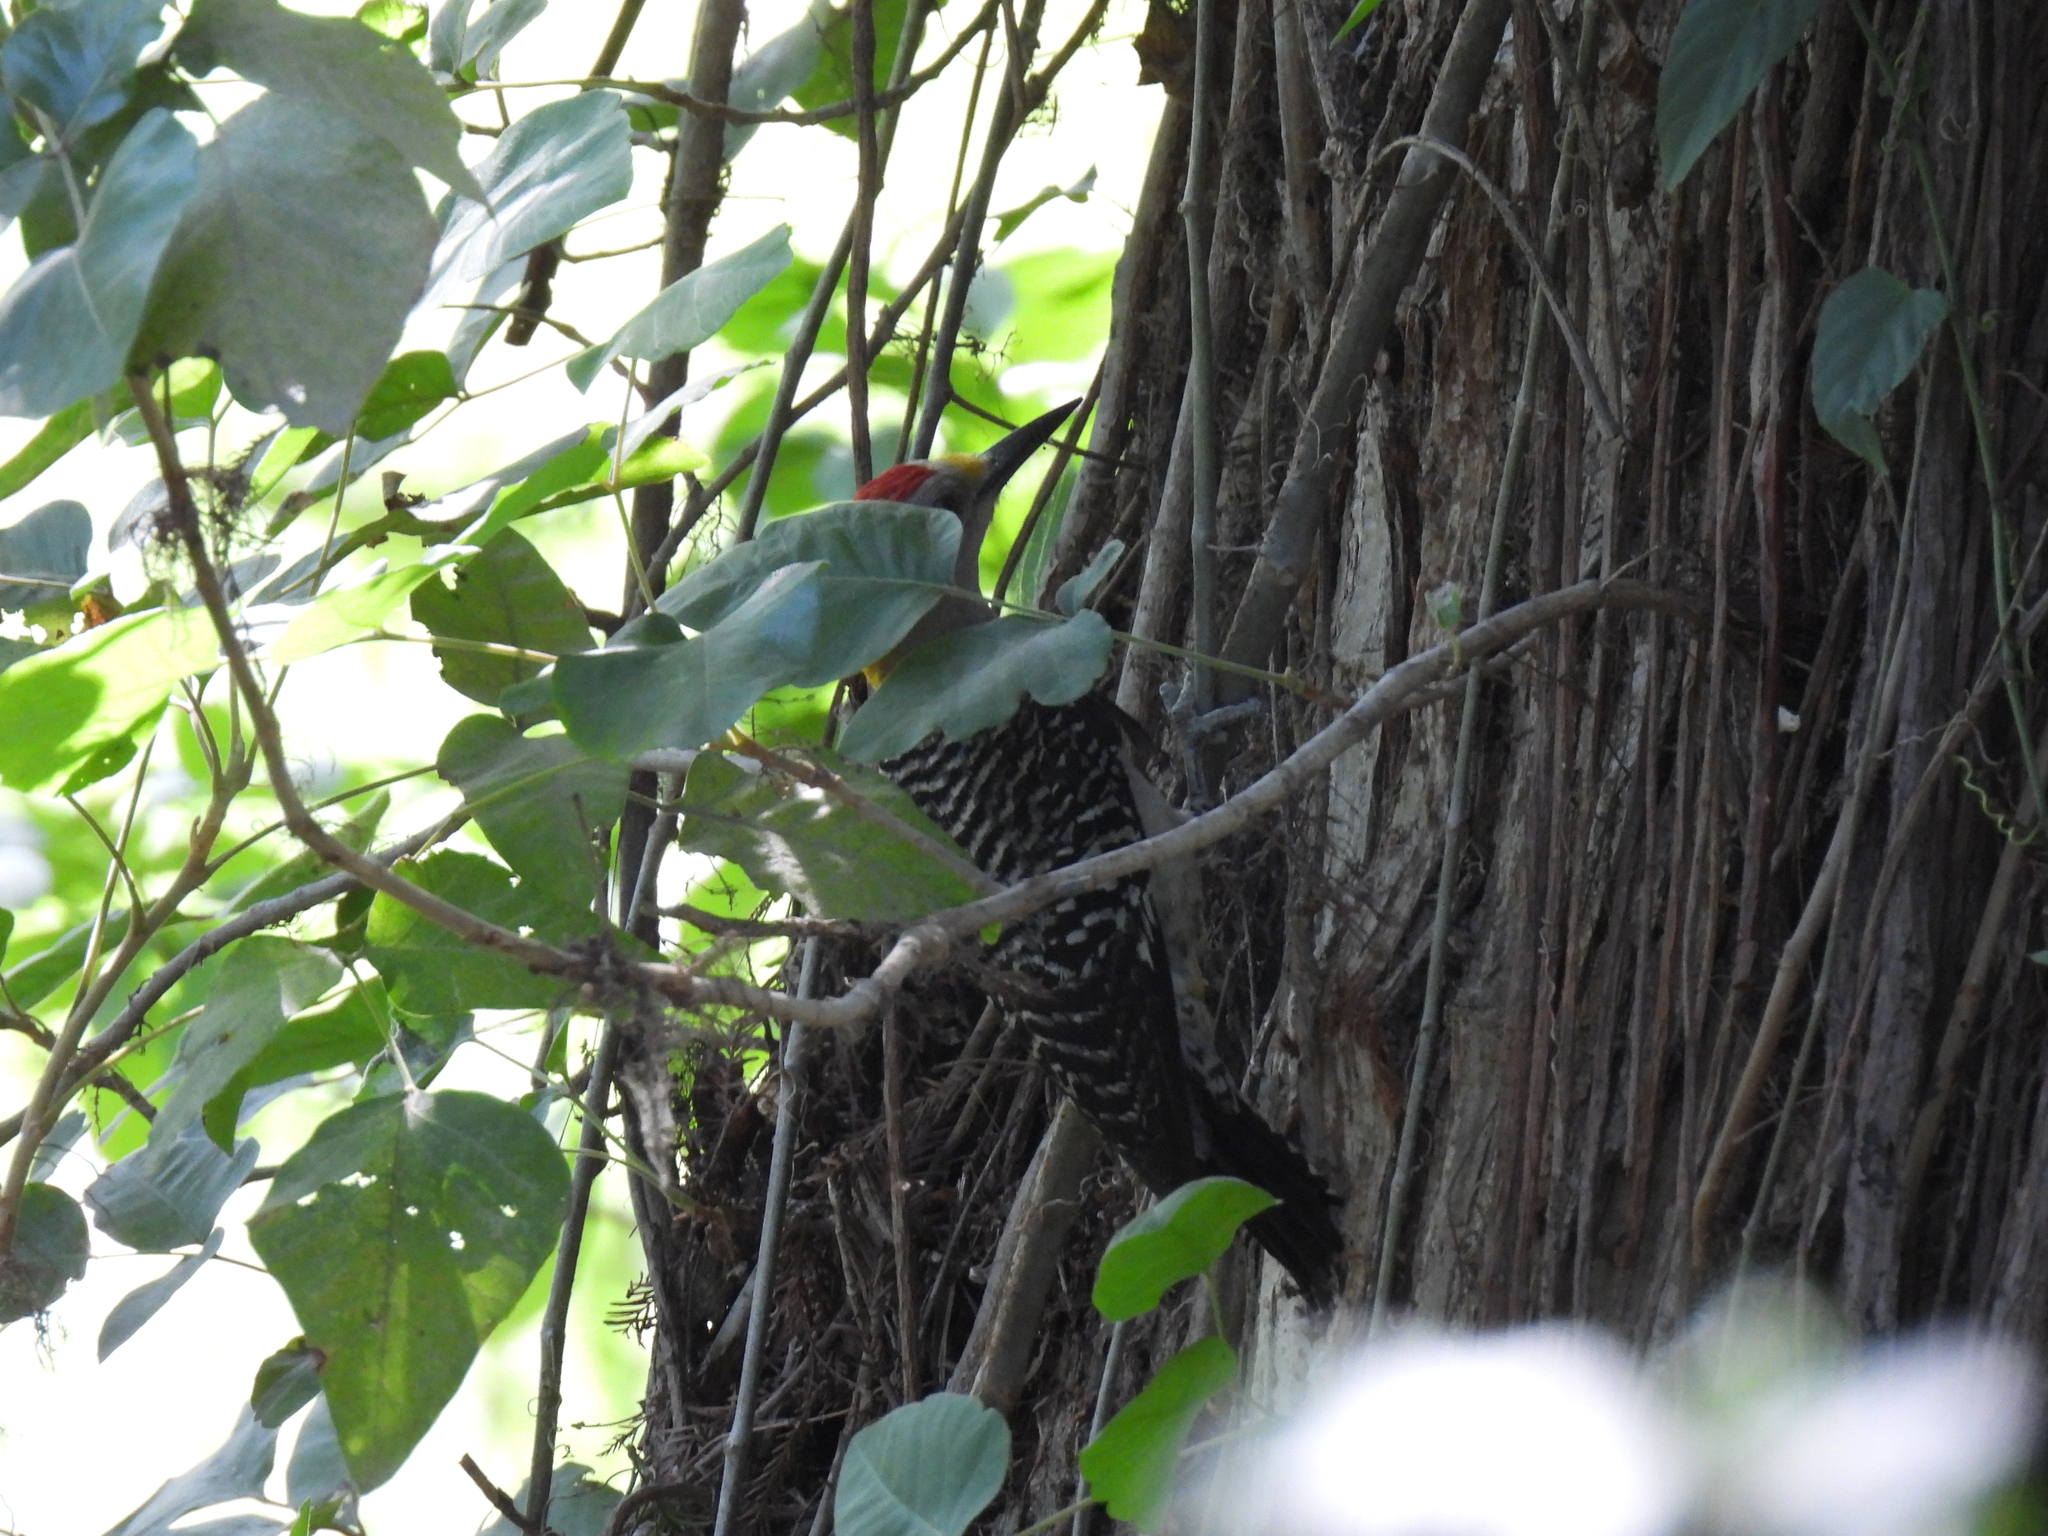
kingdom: Animalia
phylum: Chordata
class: Aves
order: Piciformes
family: Picidae
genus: Melanerpes
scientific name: Melanerpes aurifrons
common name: Golden-fronted woodpecker
